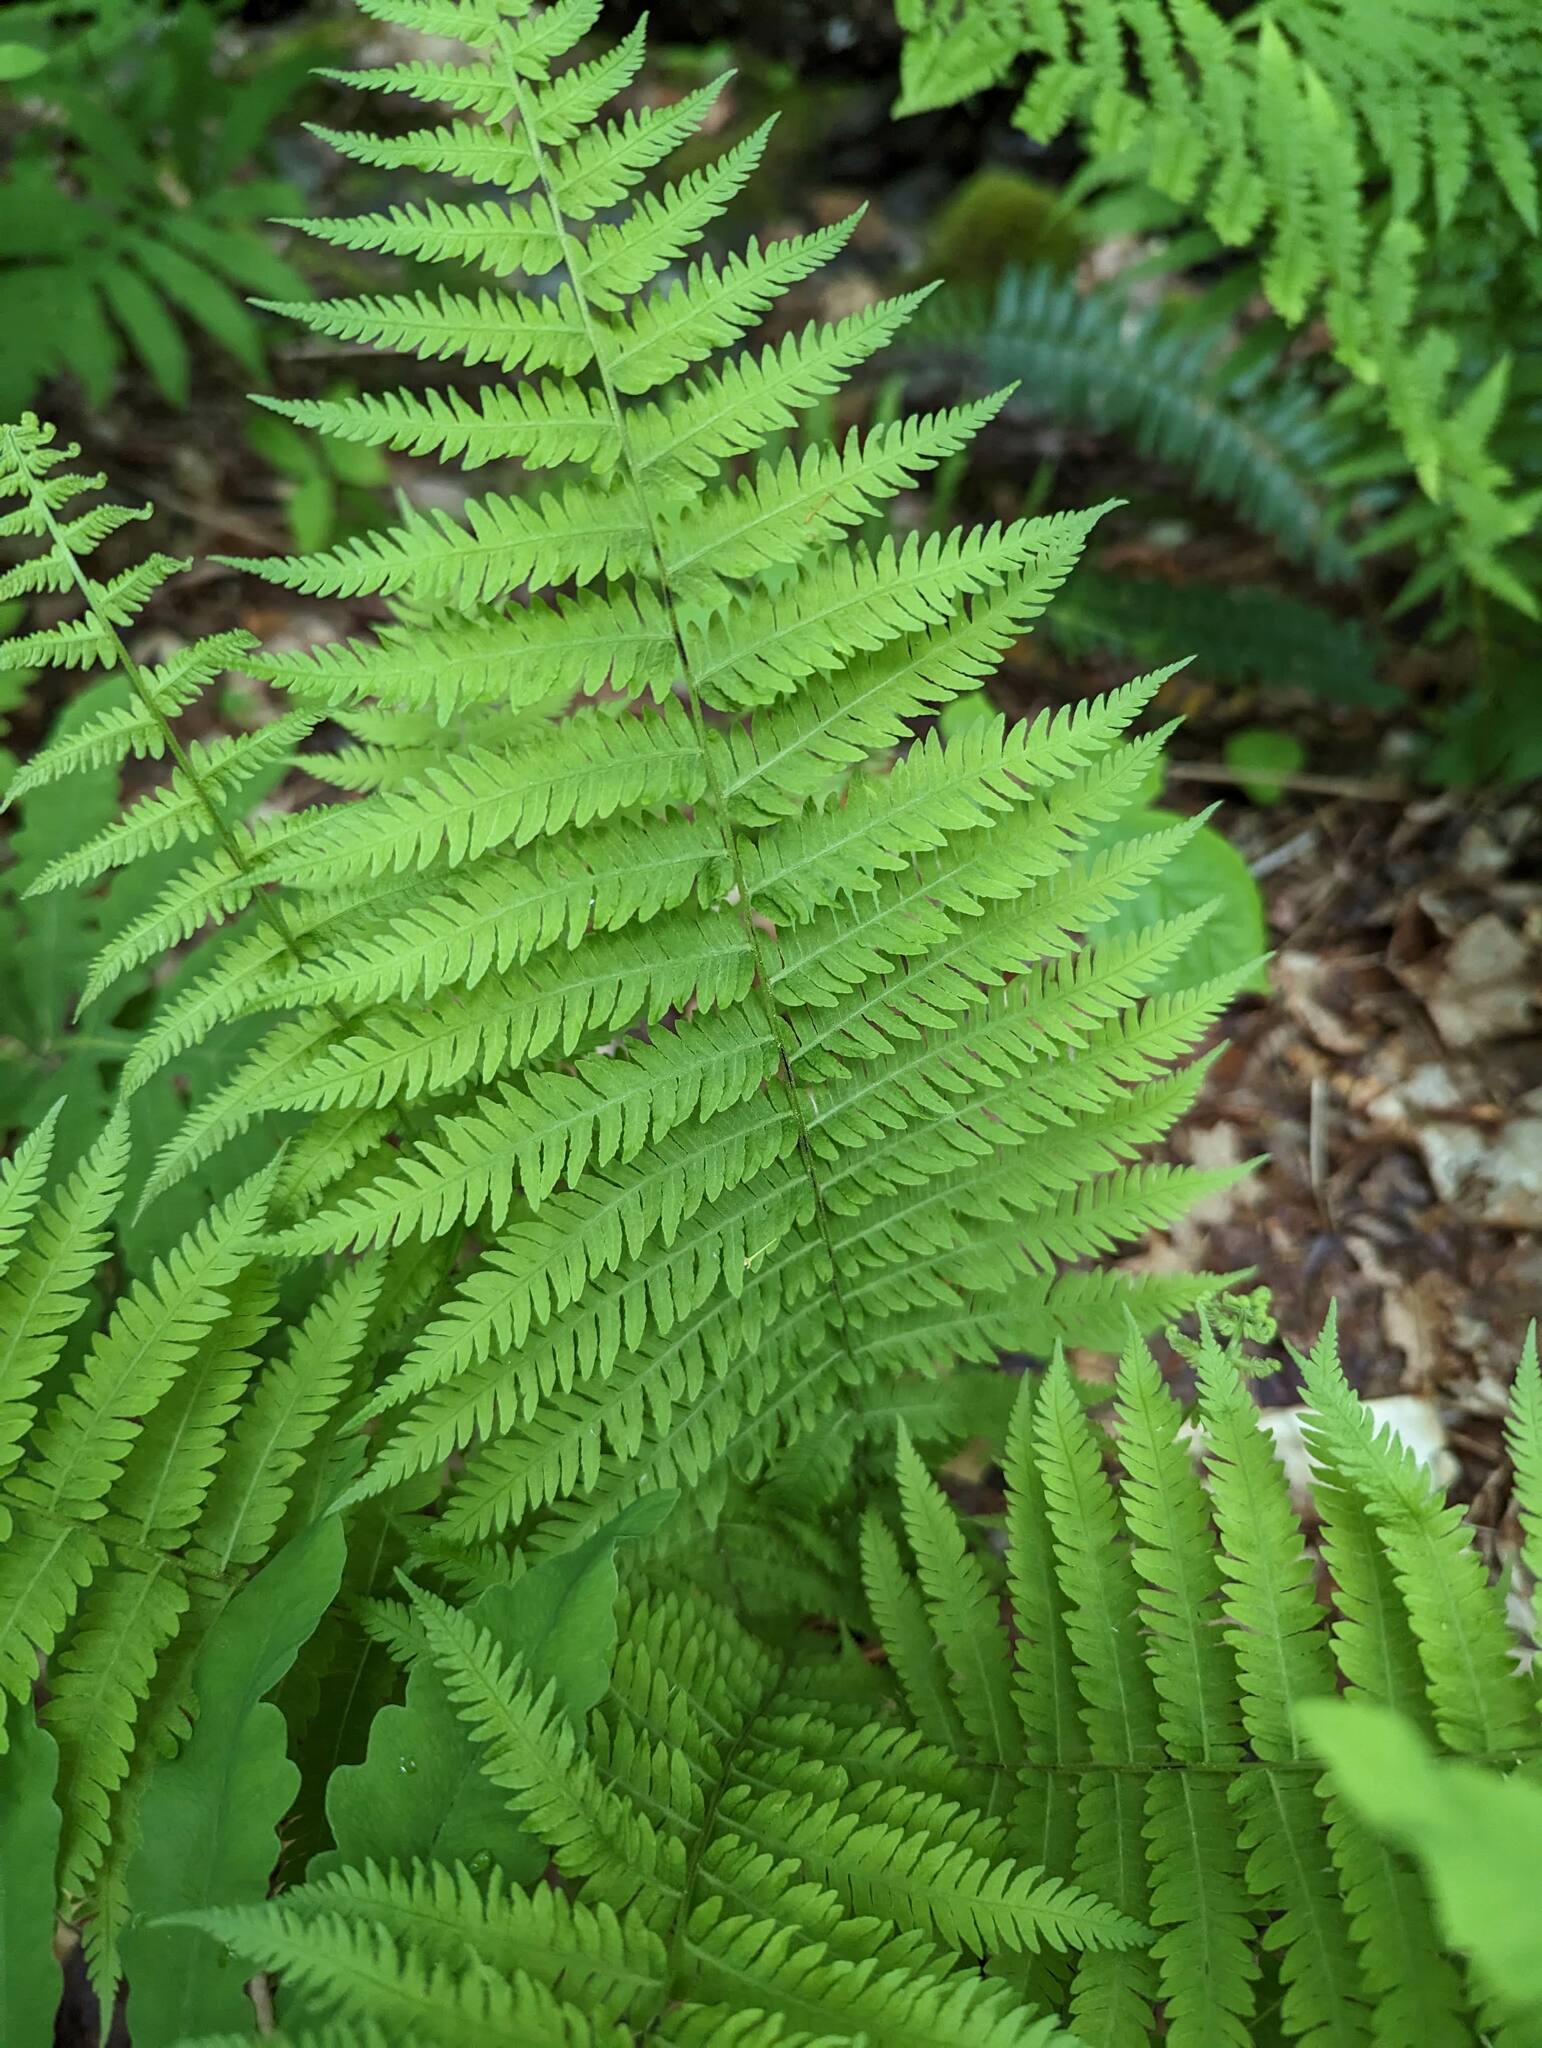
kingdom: Plantae
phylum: Tracheophyta
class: Polypodiopsida
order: Polypodiales
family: Thelypteridaceae
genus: Amauropelta
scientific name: Amauropelta noveboracensis
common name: New york fern
